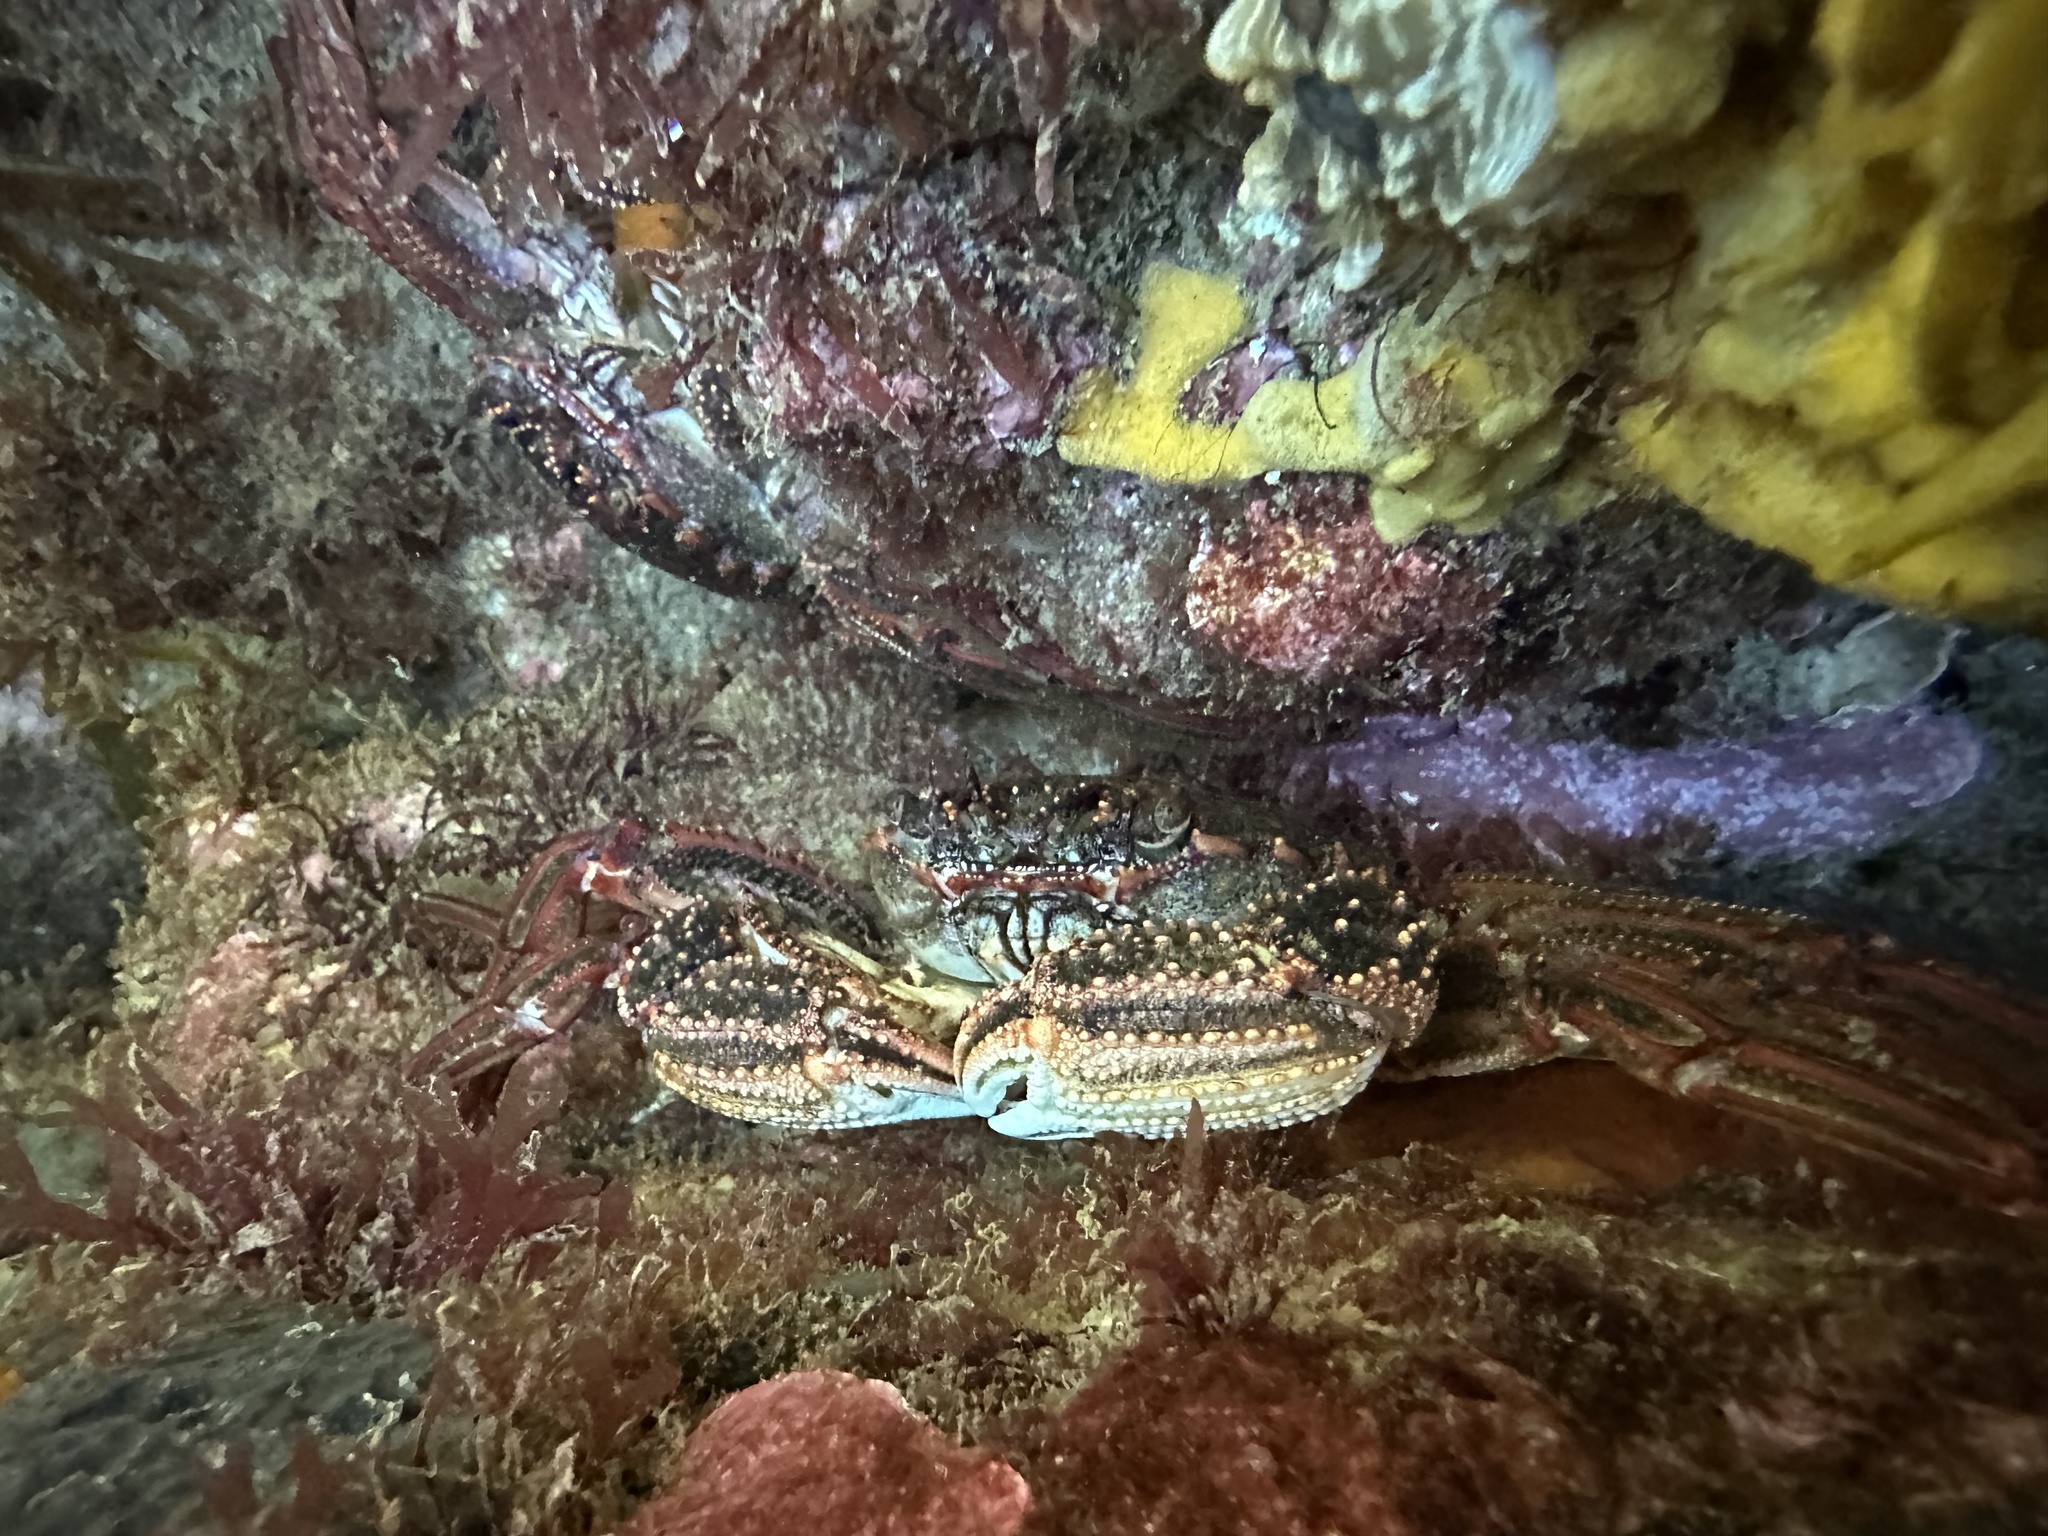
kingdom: Animalia
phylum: Arthropoda
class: Malacostraca
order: Decapoda
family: Plagusiidae
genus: Guinusia
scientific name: Guinusia chabrus
